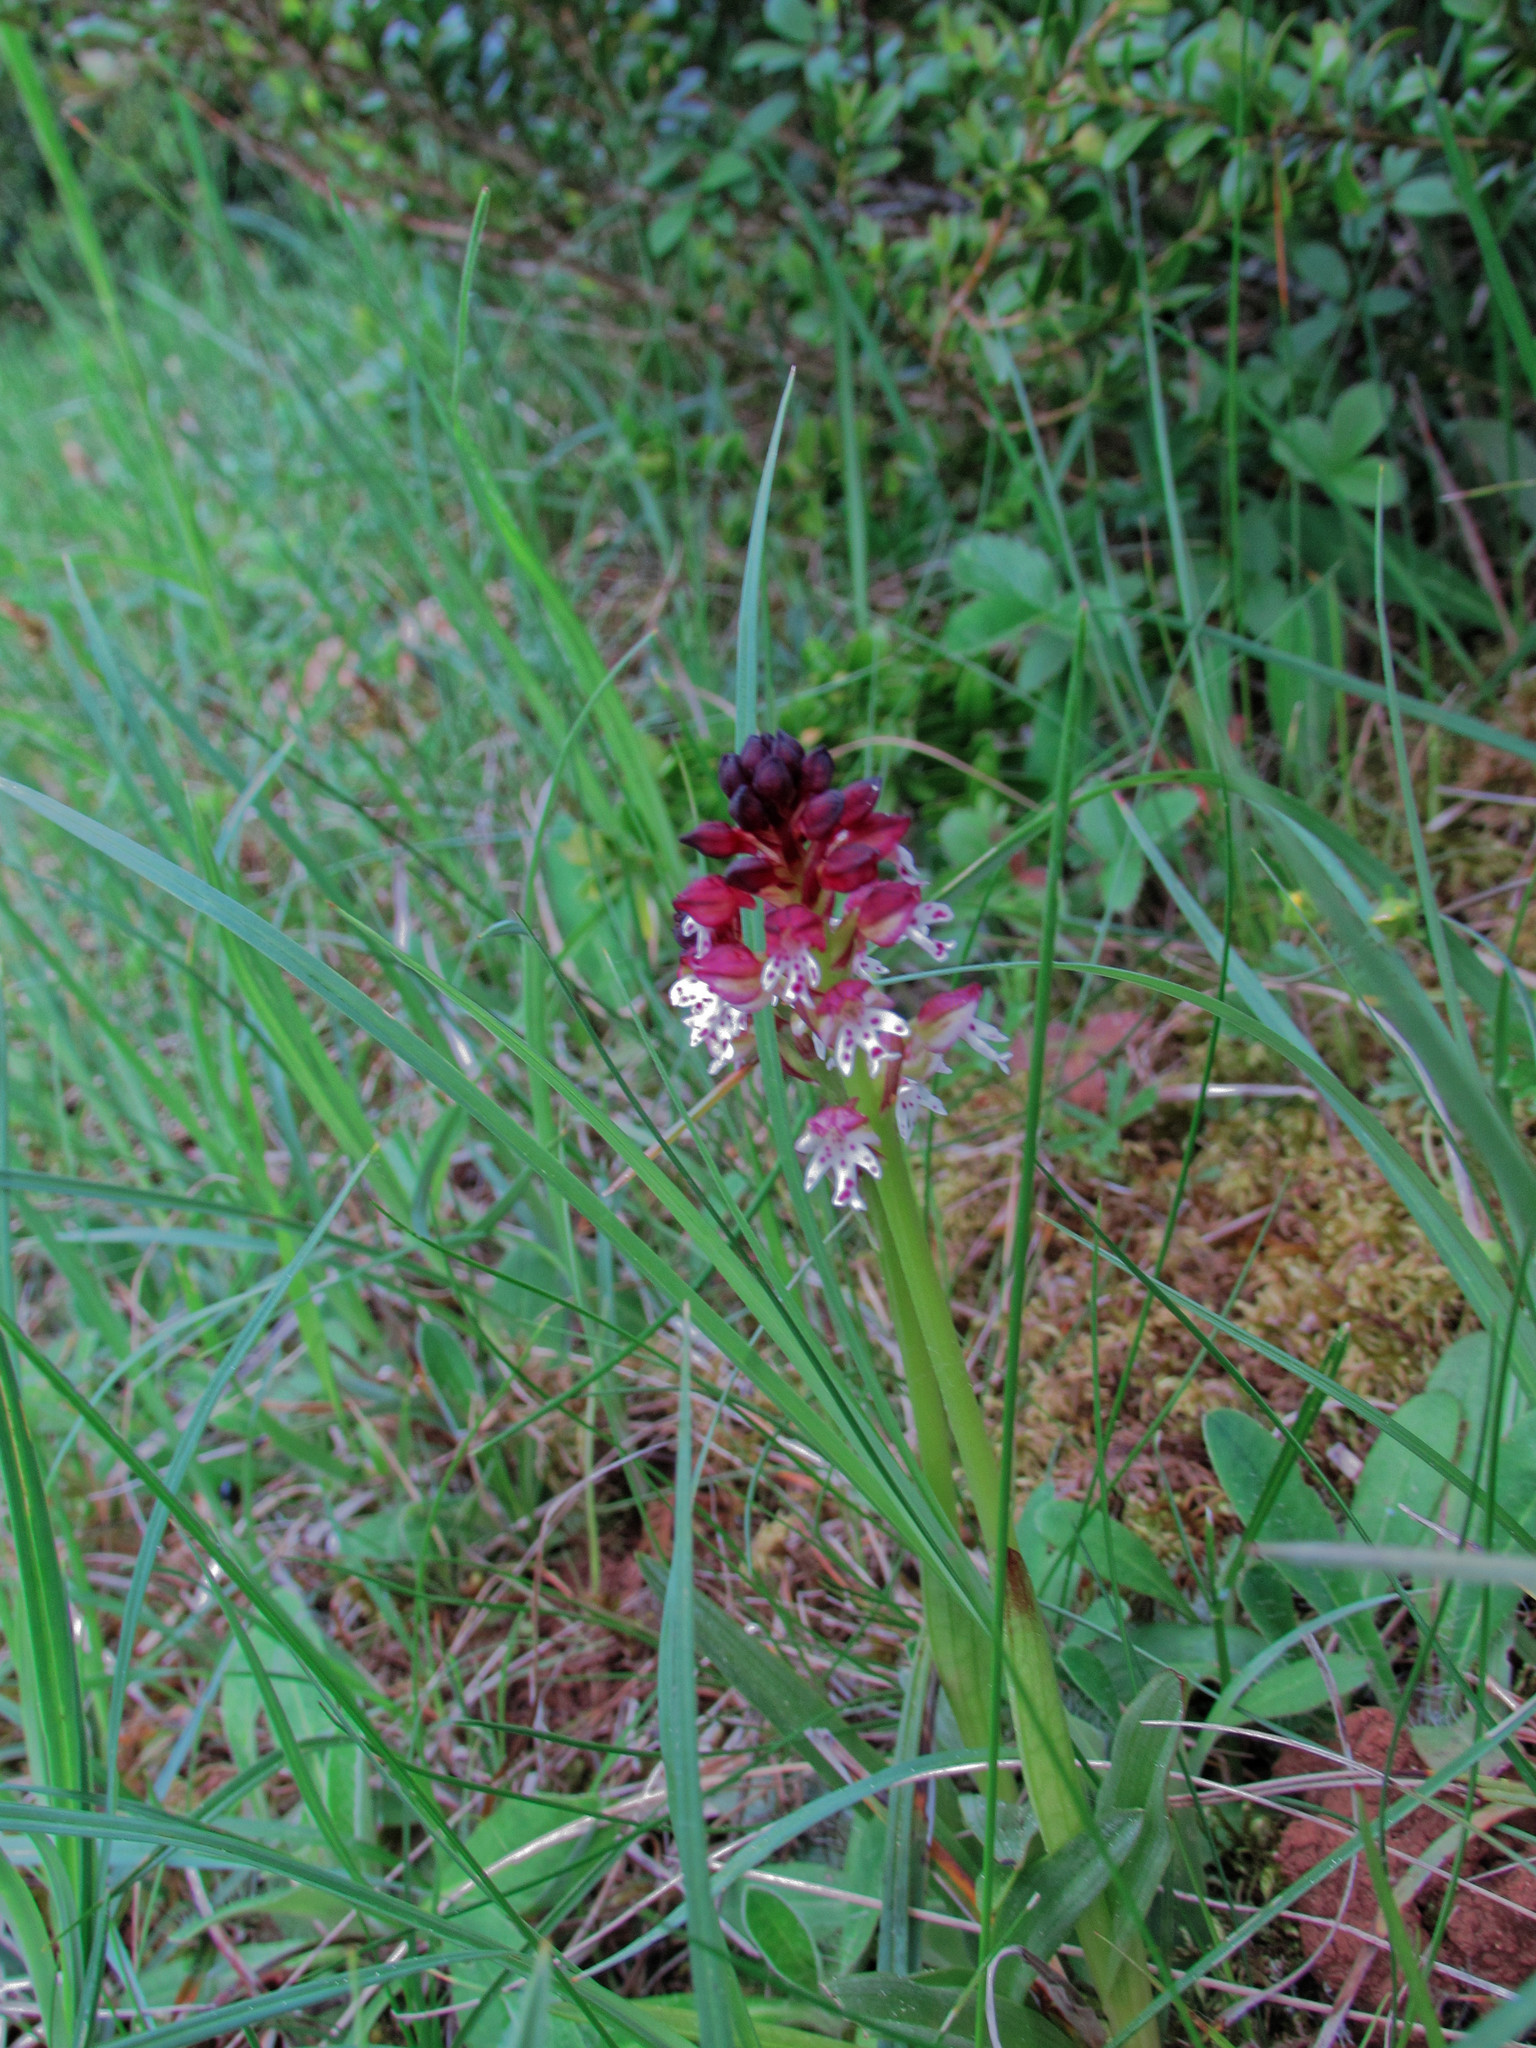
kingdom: Plantae
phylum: Tracheophyta
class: Liliopsida
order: Asparagales
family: Orchidaceae
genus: Neotinea
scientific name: Neotinea ustulata
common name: Burnt orchid
